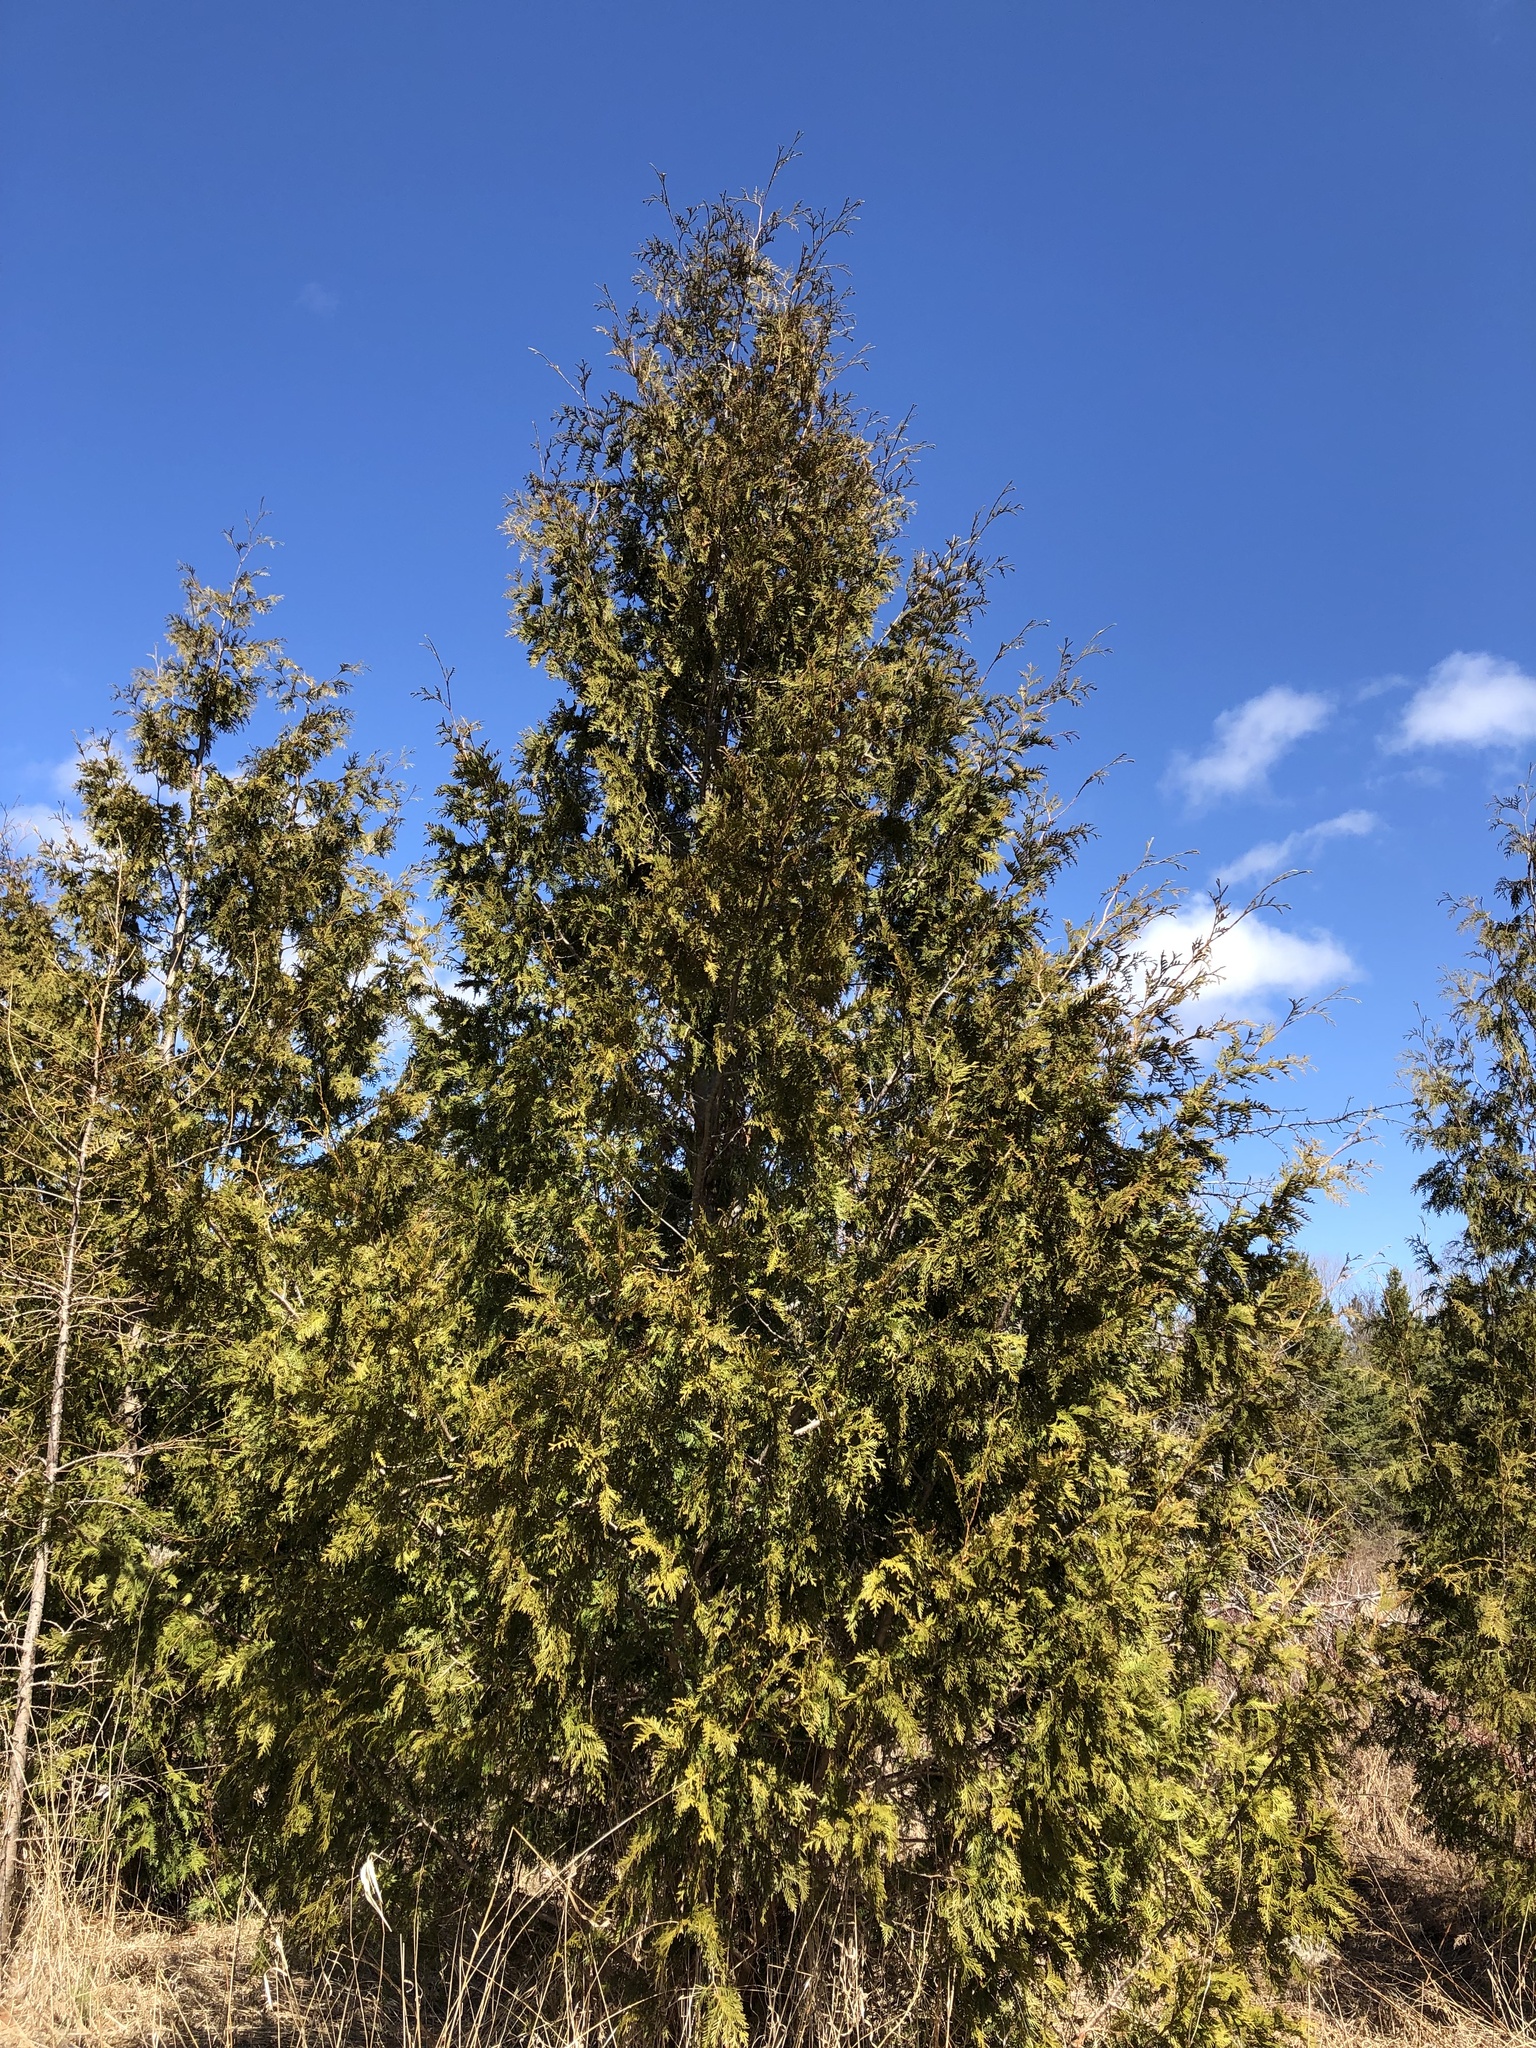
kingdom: Plantae
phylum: Tracheophyta
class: Pinopsida
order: Pinales
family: Cupressaceae
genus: Thuja
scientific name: Thuja occidentalis
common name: Northern white-cedar
